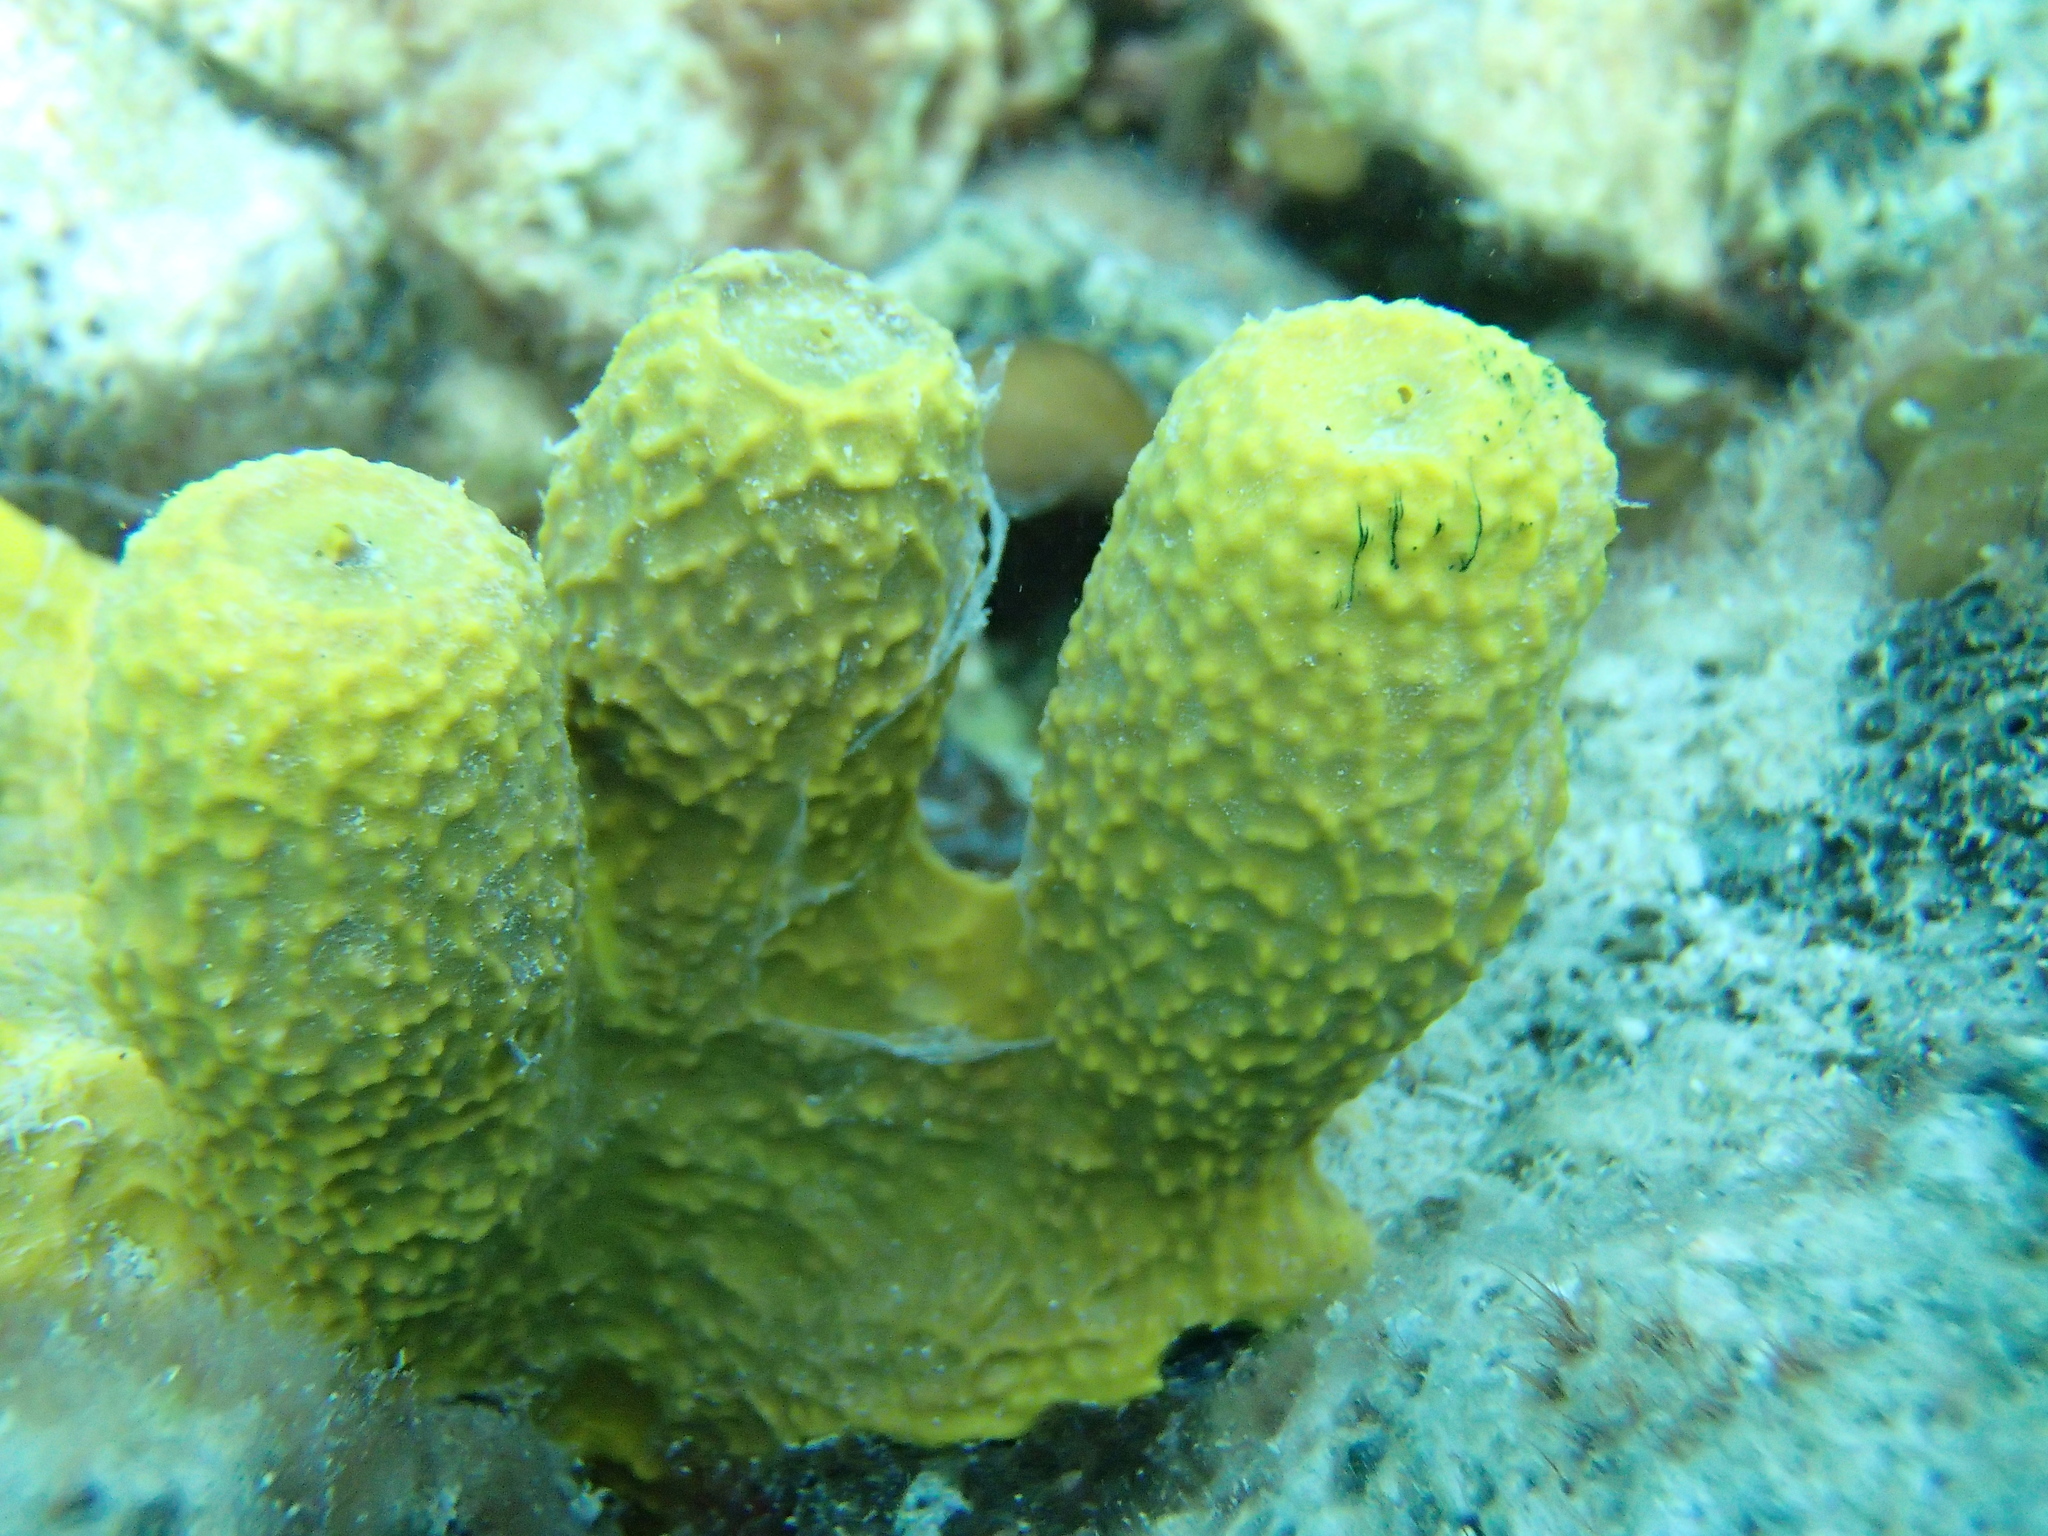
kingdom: Animalia
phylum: Porifera
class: Demospongiae
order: Verongiida
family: Aplysinidae
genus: Aplysina
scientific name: Aplysina aerophoba
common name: Aureate sponge
